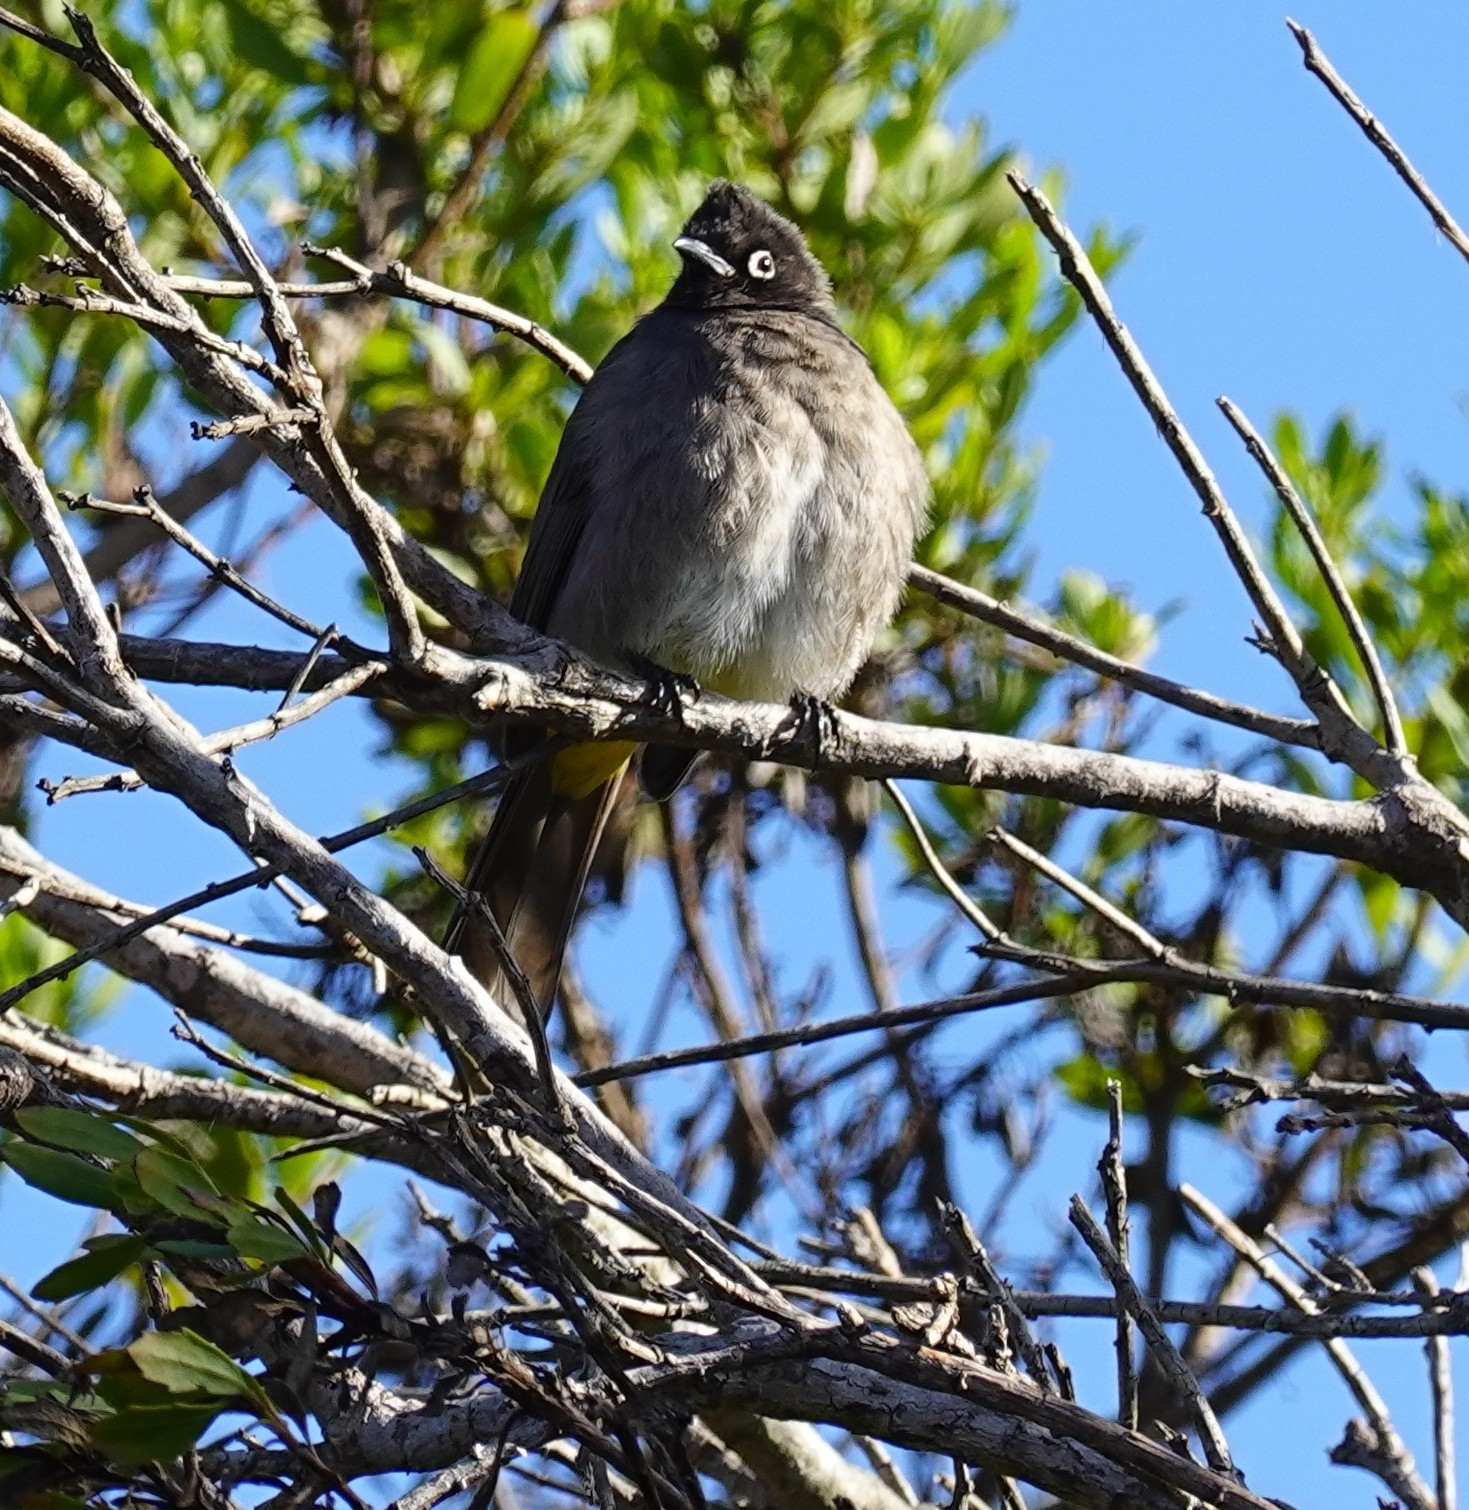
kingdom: Animalia
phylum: Chordata
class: Aves
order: Passeriformes
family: Pycnonotidae
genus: Pycnonotus
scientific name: Pycnonotus capensis
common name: Cape bulbul
